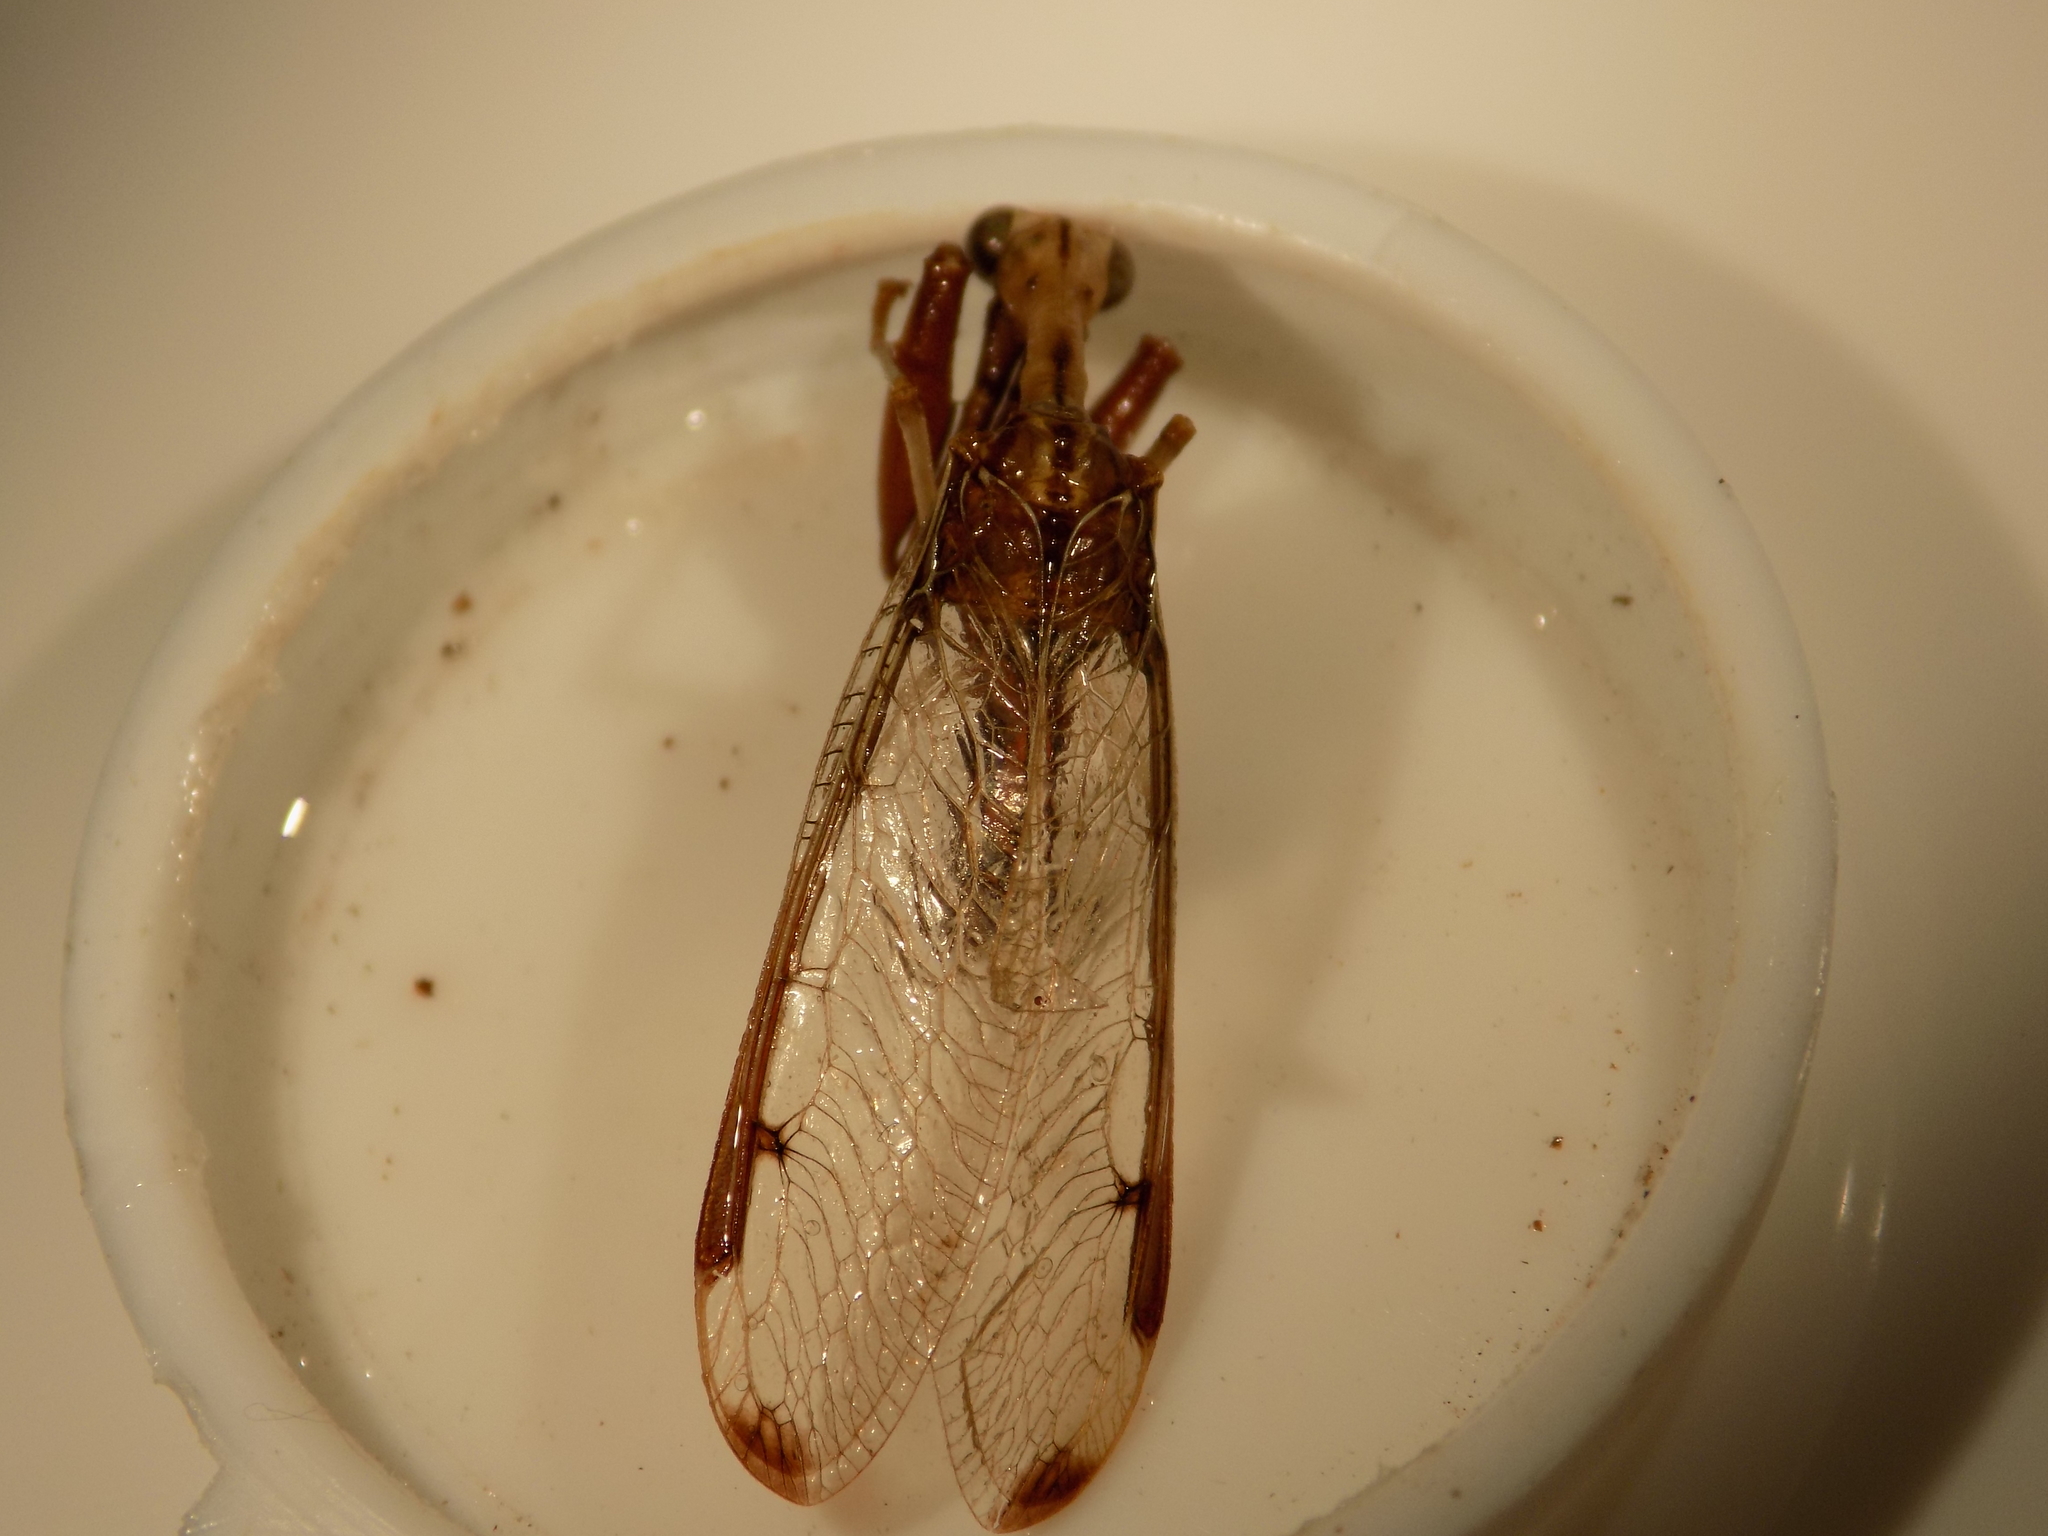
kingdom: Animalia
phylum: Arthropoda
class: Insecta
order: Neuroptera
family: Mantispidae
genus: Dicromantispa
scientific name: Dicromantispa interrupta
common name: Four-spotted mantidfly
